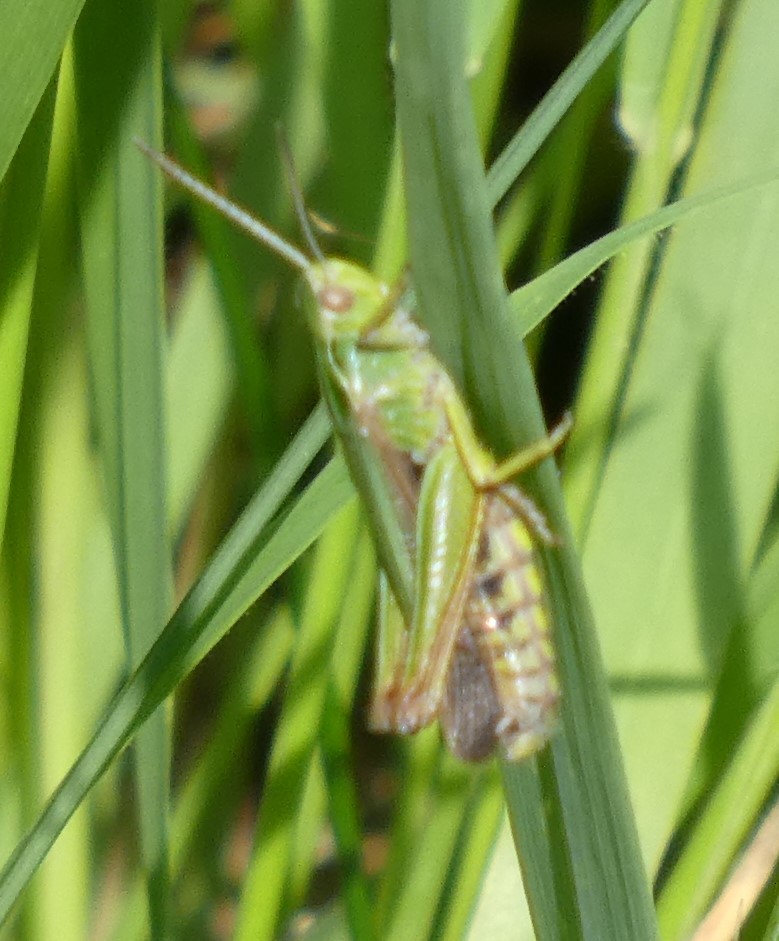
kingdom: Animalia
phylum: Arthropoda
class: Insecta
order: Orthoptera
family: Acrididae
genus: Omocestus
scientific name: Omocestus viridulus
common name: Common green grasshopper
